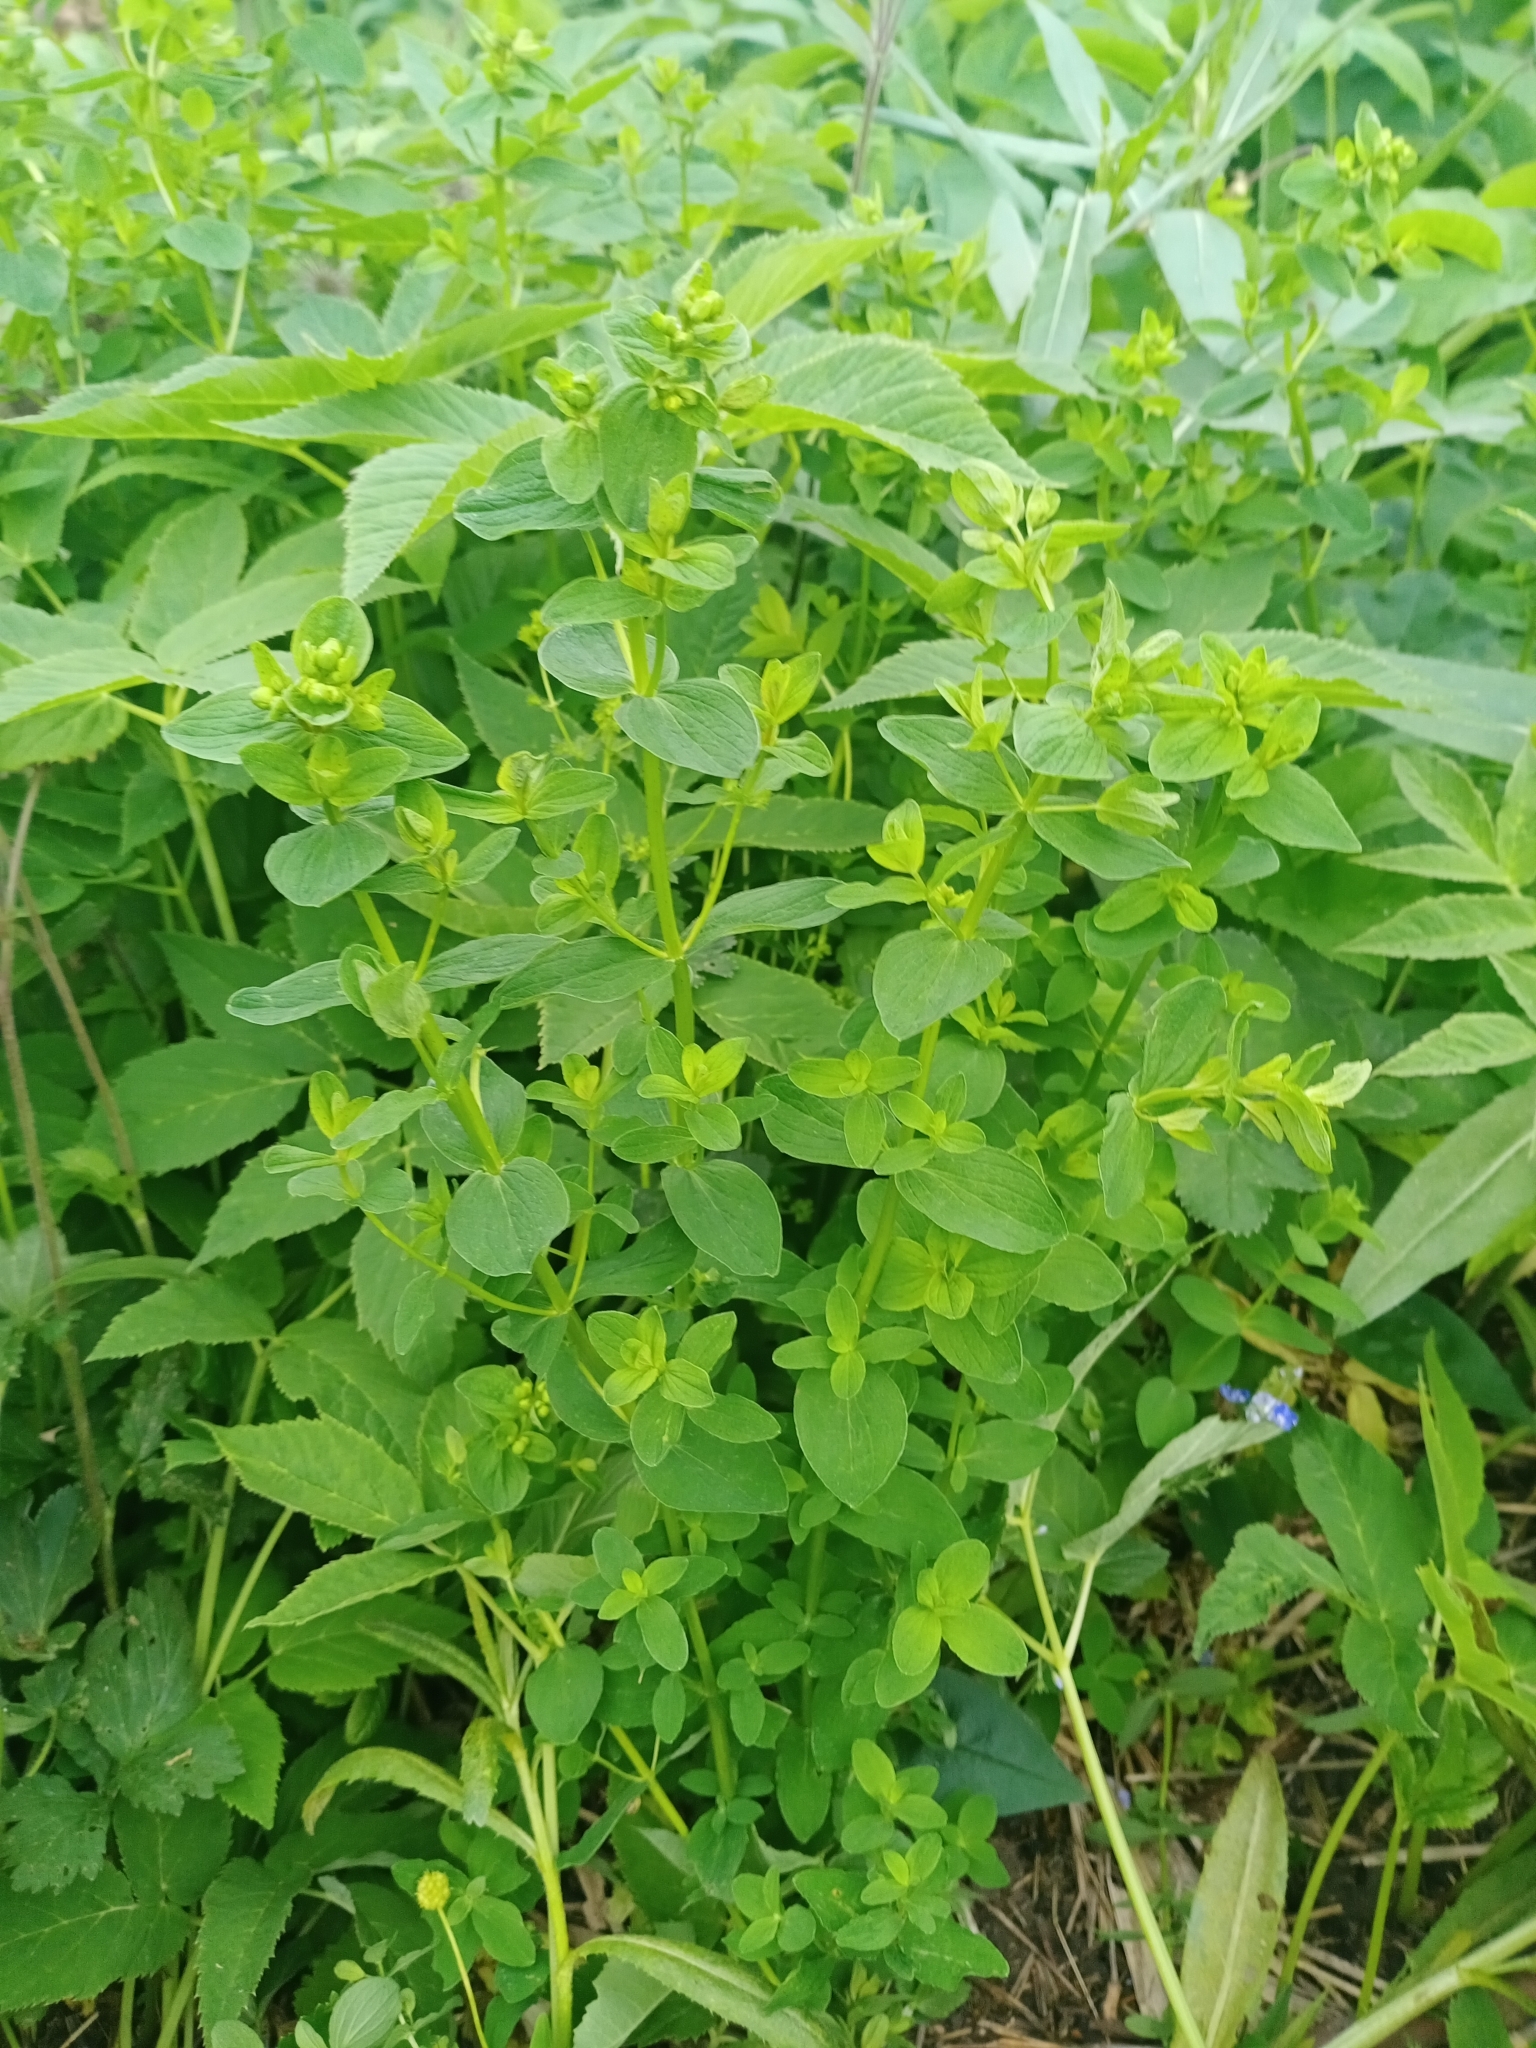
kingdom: Plantae
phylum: Tracheophyta
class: Magnoliopsida
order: Malpighiales
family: Hypericaceae
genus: Hypericum
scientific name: Hypericum maculatum
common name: Imperforate st. john's-wort
